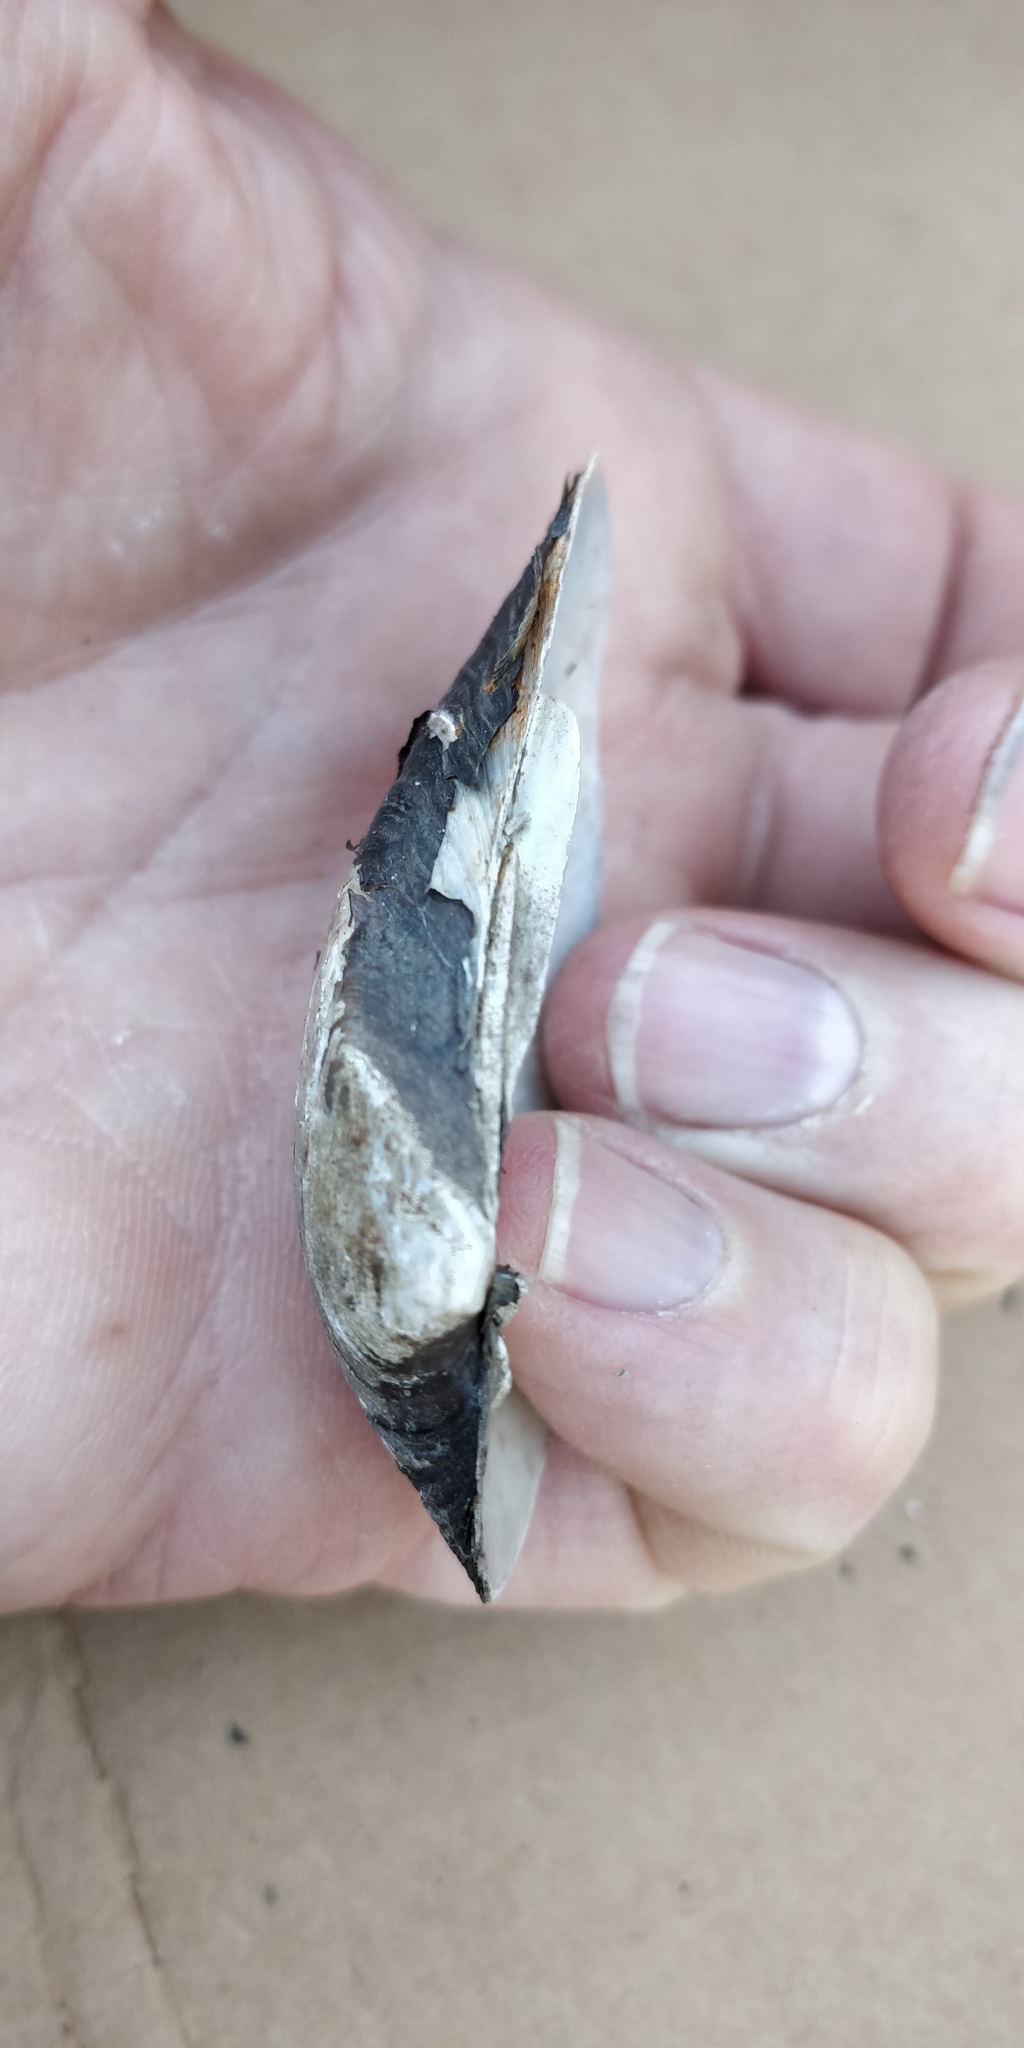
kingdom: Animalia
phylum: Mollusca
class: Bivalvia
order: Unionida
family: Unionidae
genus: Truncilla
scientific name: Truncilla donaciformis
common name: Fawnsfoot
